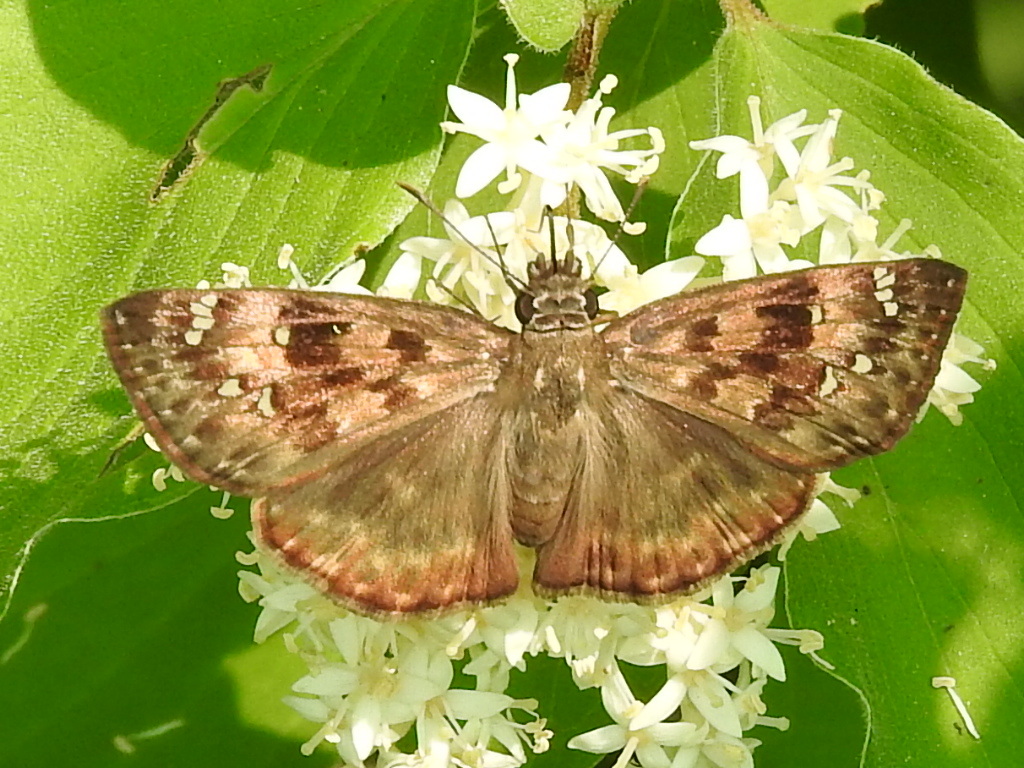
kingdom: Animalia
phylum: Arthropoda
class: Insecta
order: Lepidoptera
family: Hesperiidae
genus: Erynnis
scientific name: Erynnis horatius
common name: Horace's duskywing
